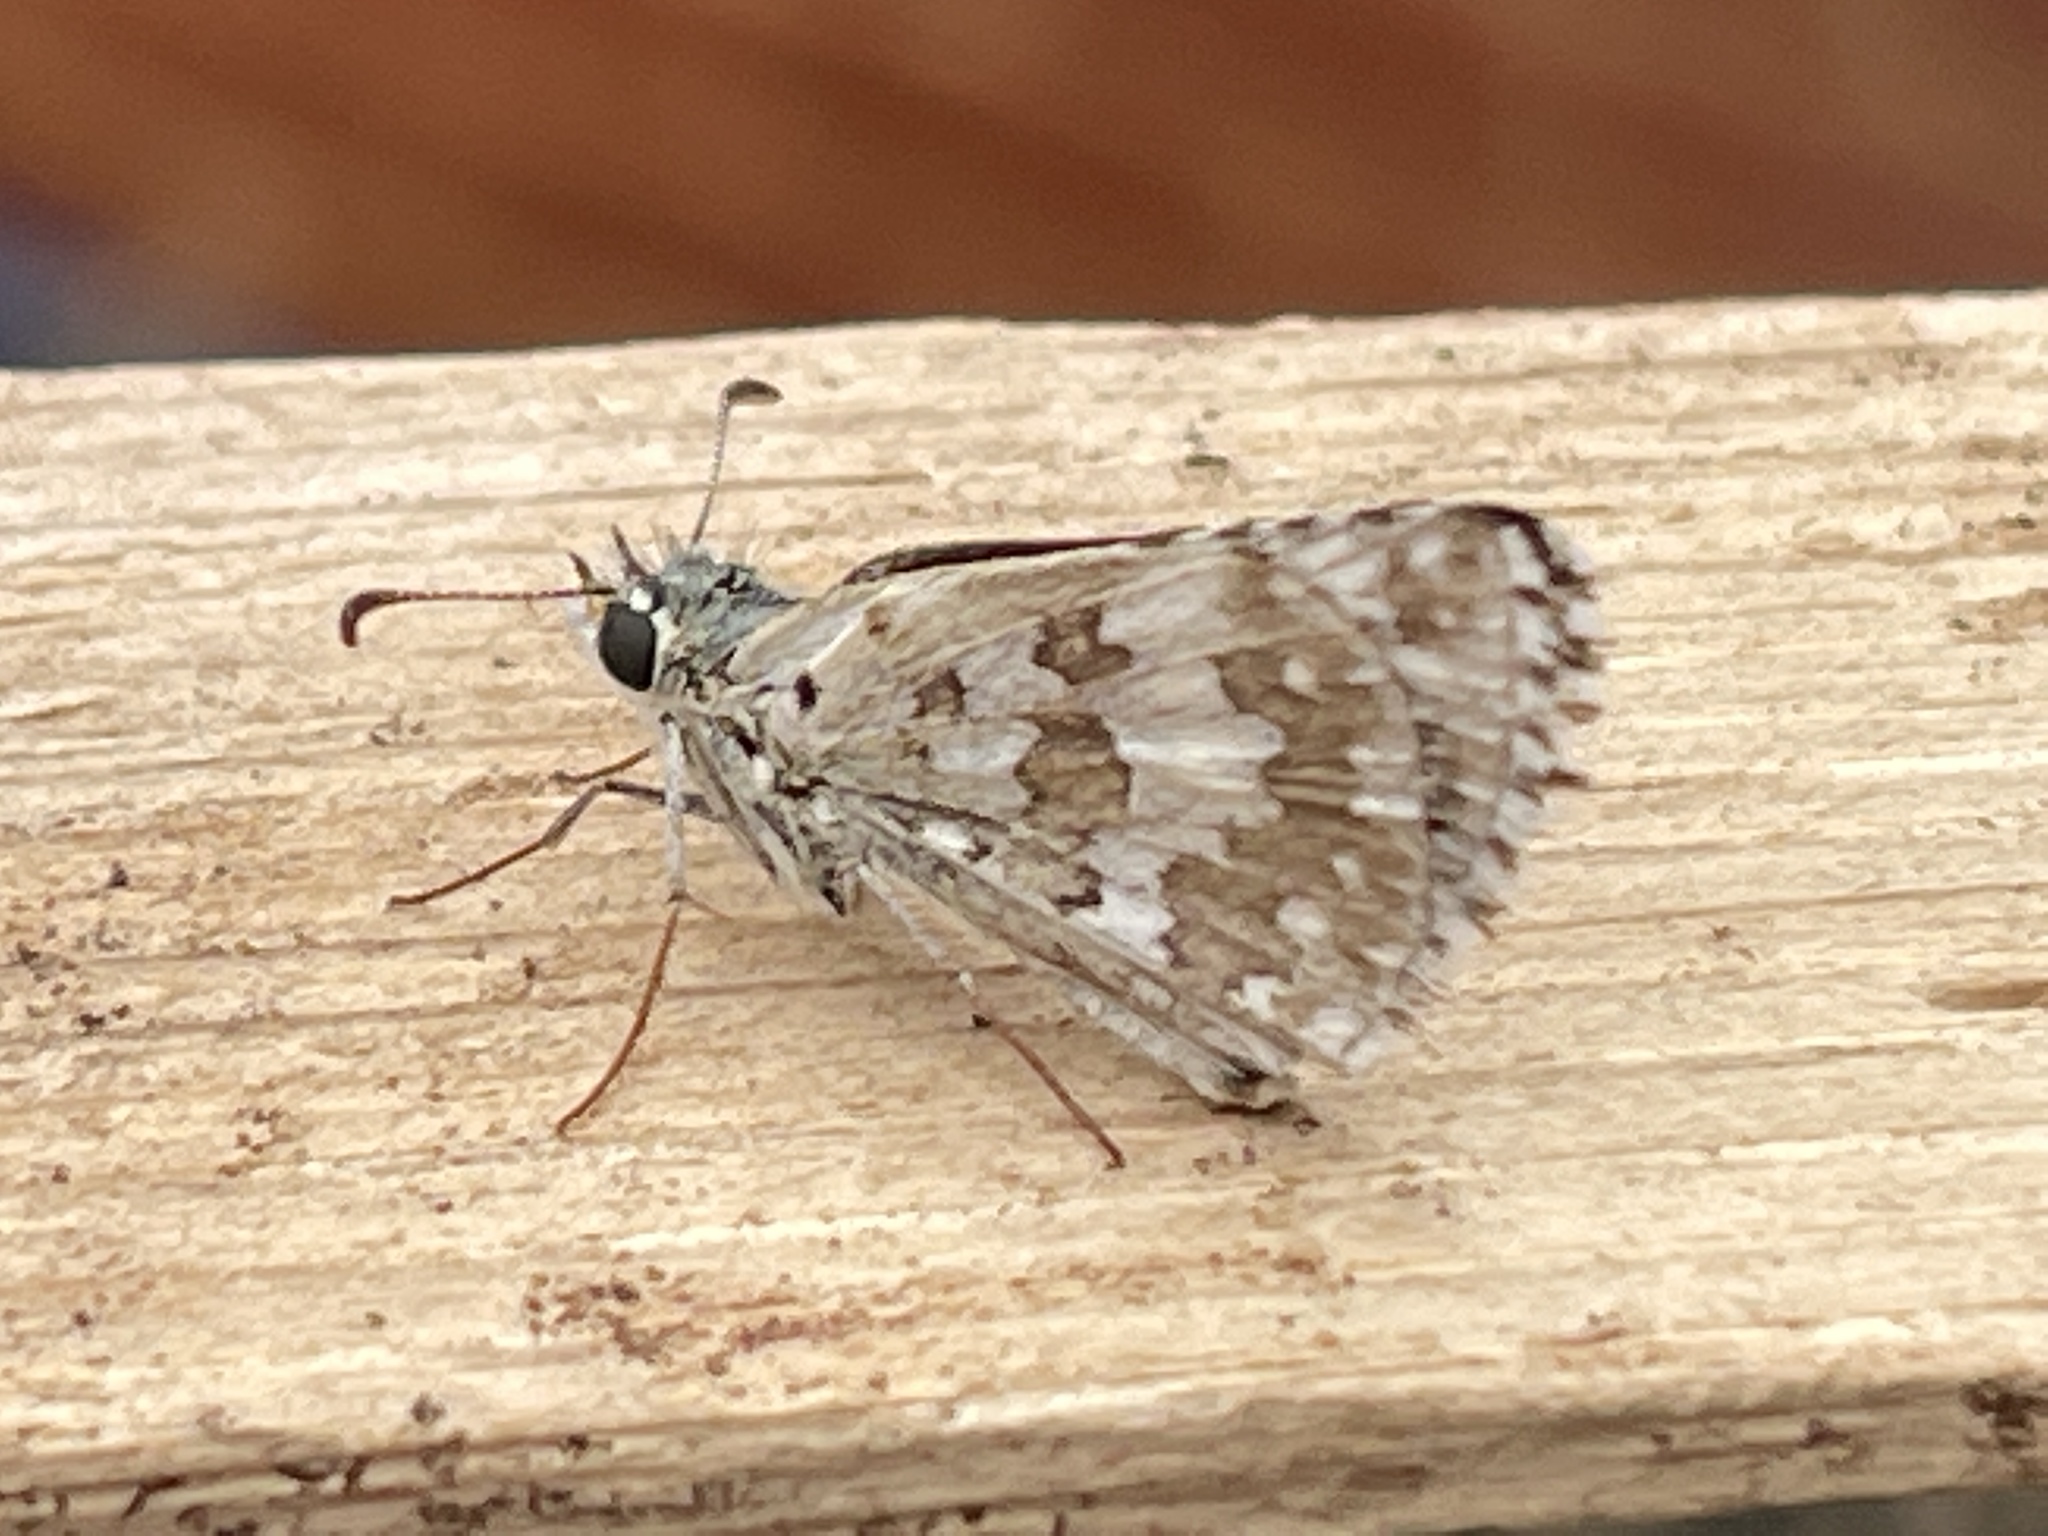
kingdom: Animalia
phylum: Arthropoda
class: Insecta
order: Lepidoptera
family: Hesperiidae
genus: Burnsius
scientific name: Burnsius communis
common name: Common checkered-skipper
